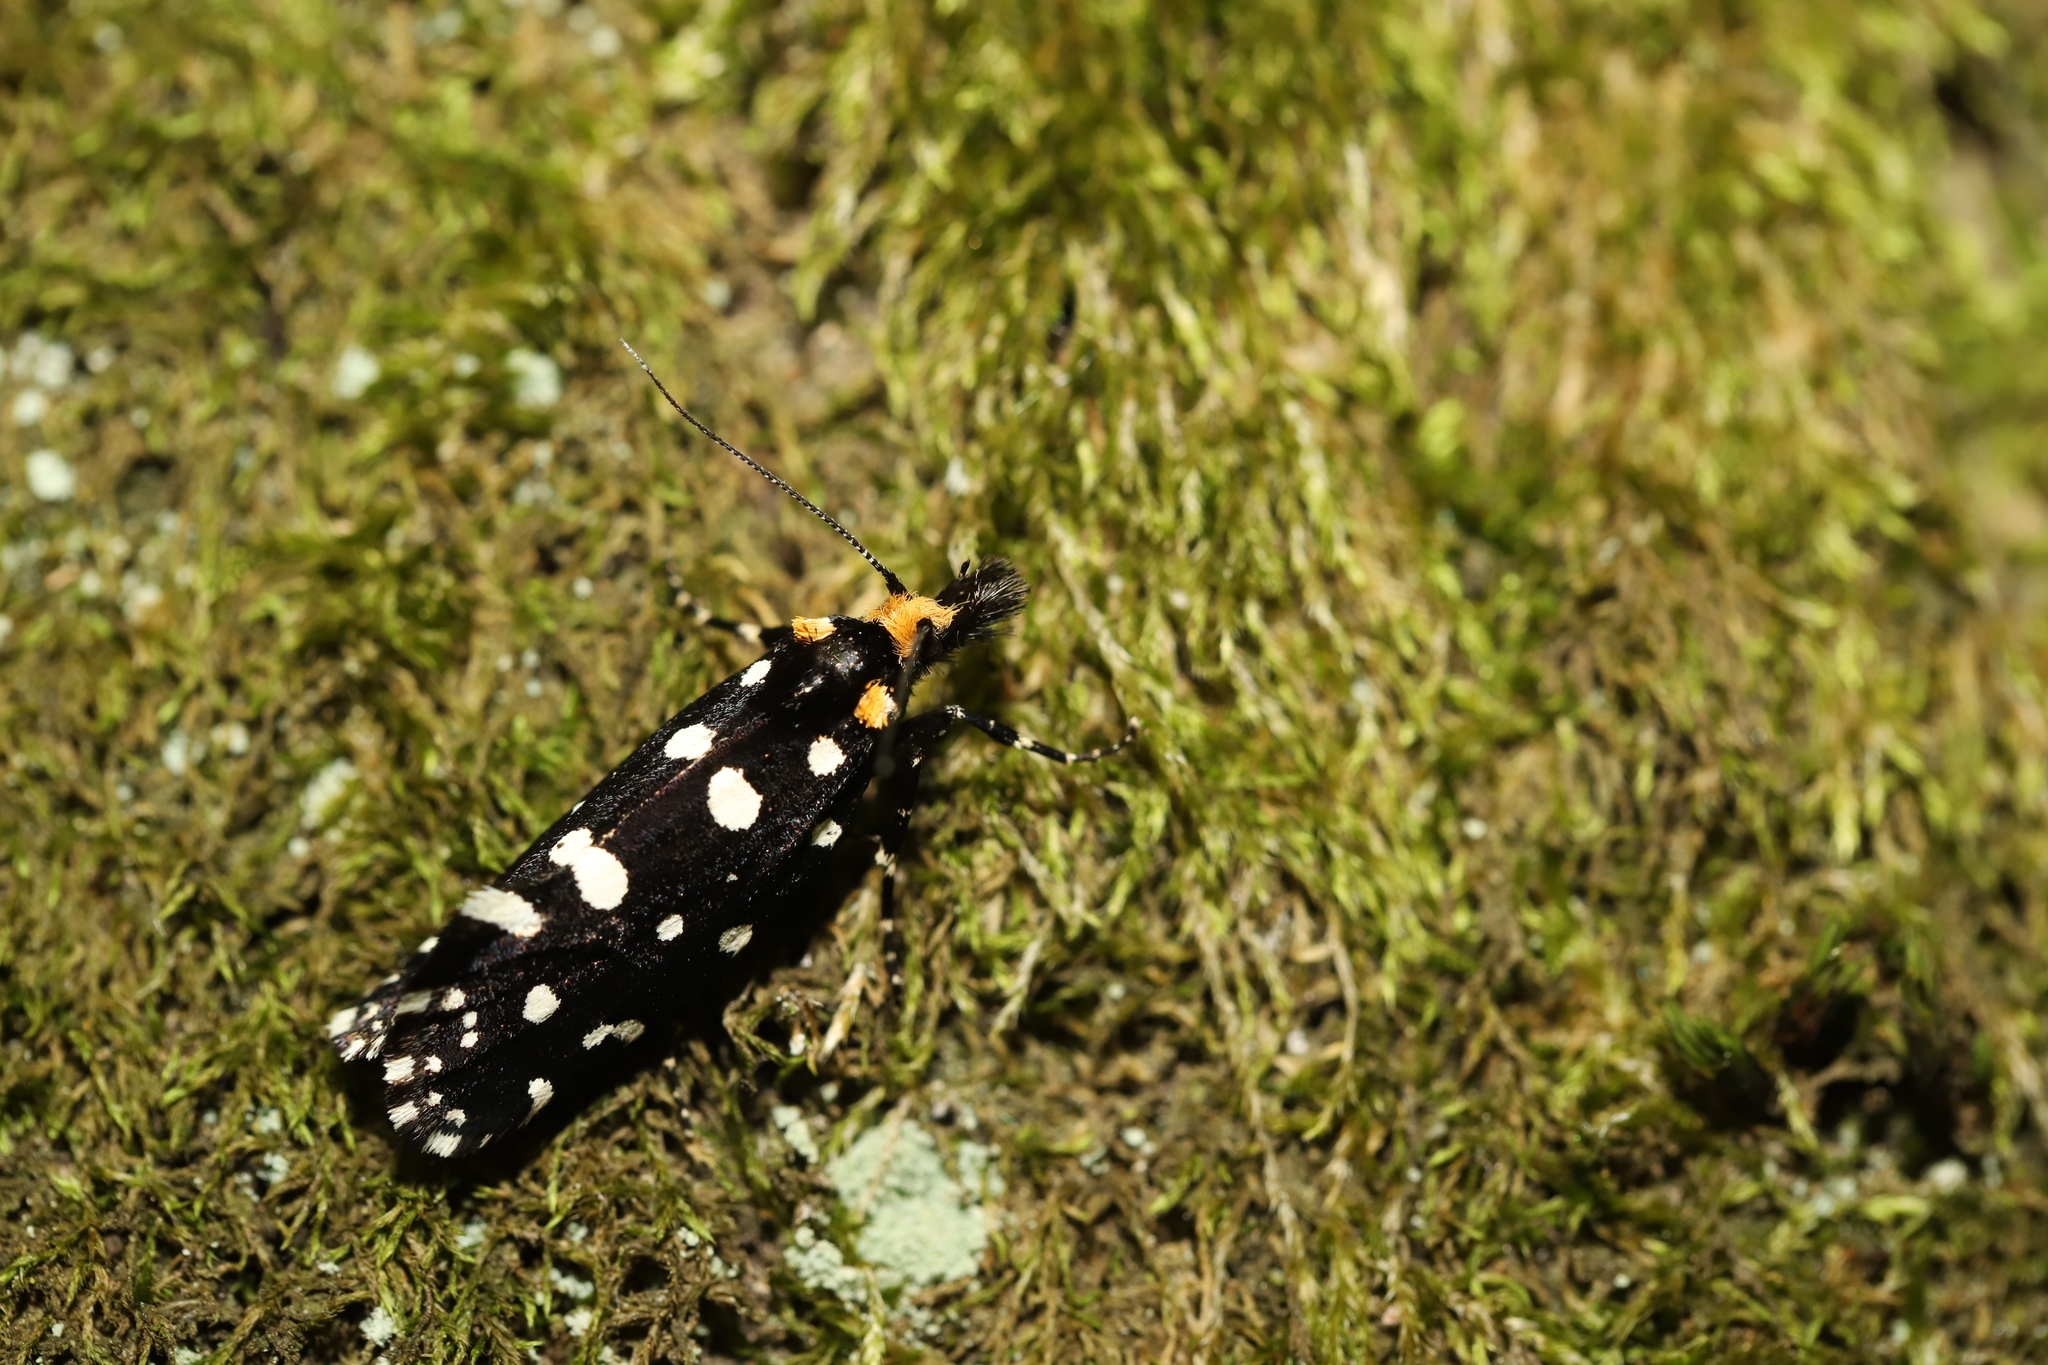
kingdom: Animalia
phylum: Arthropoda
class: Insecta
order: Lepidoptera
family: Tineidae
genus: Euplocamus
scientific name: Euplocamus anthracinalis
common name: Black clothes
